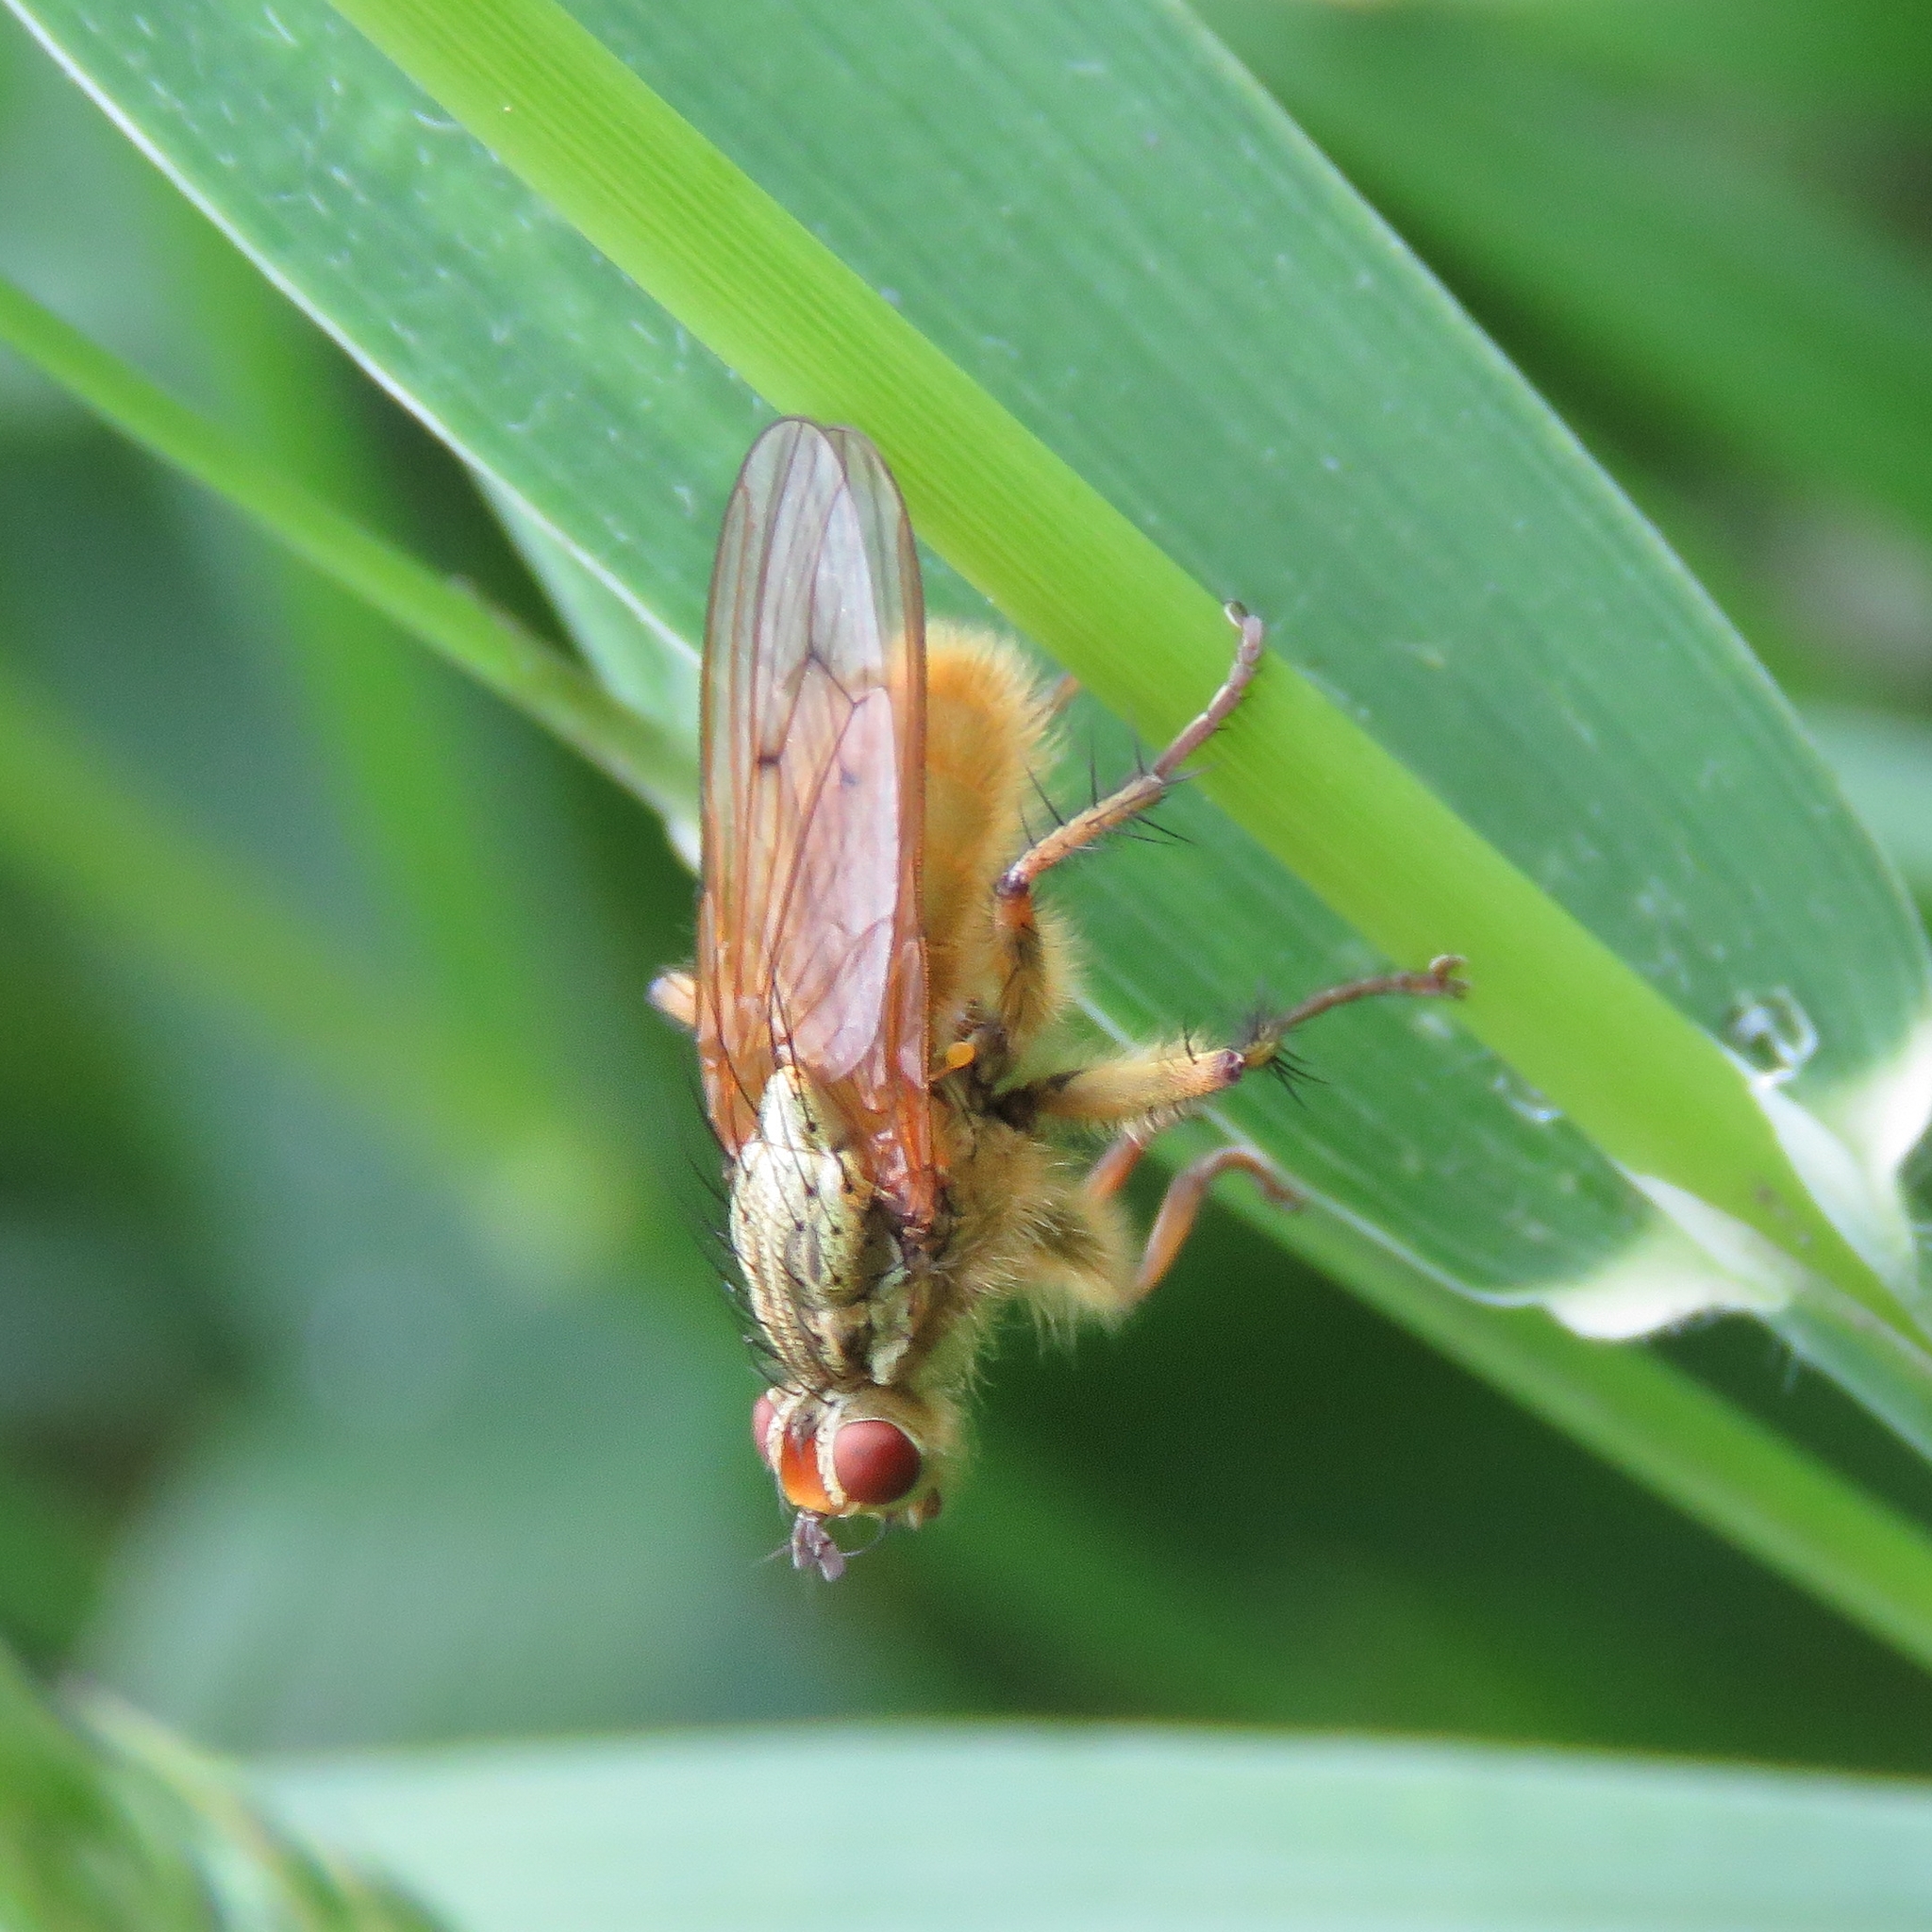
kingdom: Animalia
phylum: Arthropoda
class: Insecta
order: Diptera
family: Scathophagidae
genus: Scathophaga
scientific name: Scathophaga stercoraria
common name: Yellow dung fly
